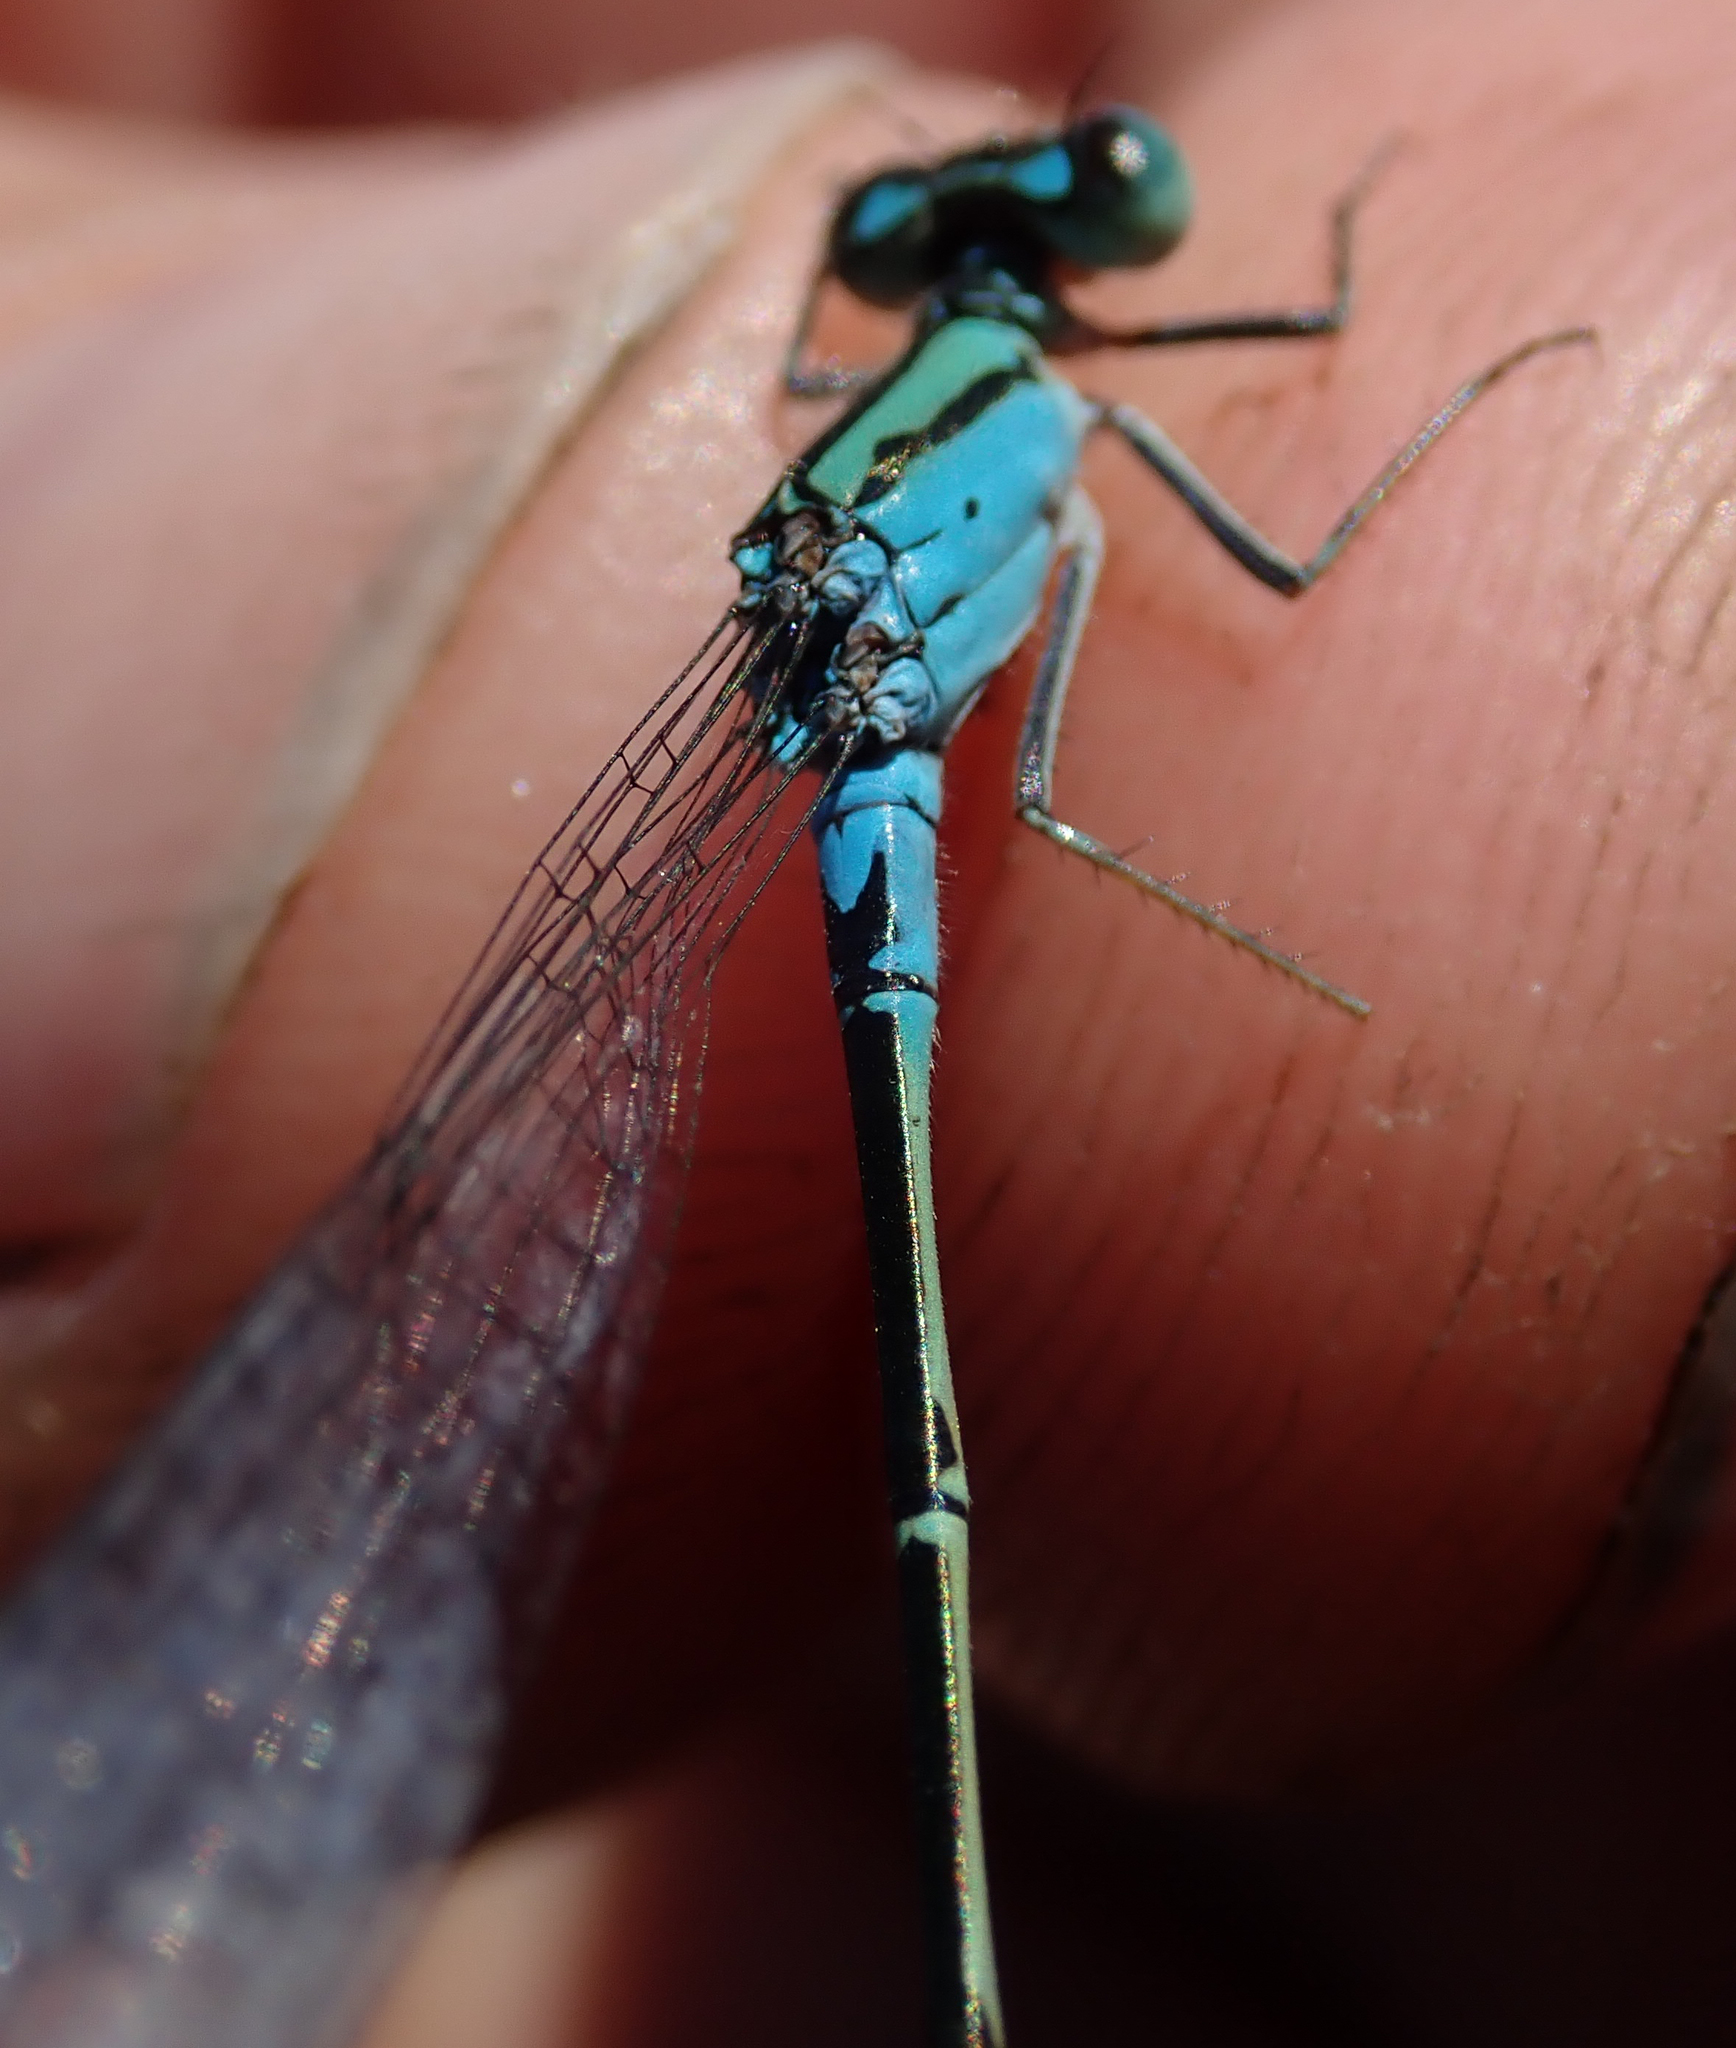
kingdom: Animalia
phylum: Arthropoda
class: Insecta
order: Odonata
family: Coenagrionidae
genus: Pseudagrion
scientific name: Pseudagrion coeleste
